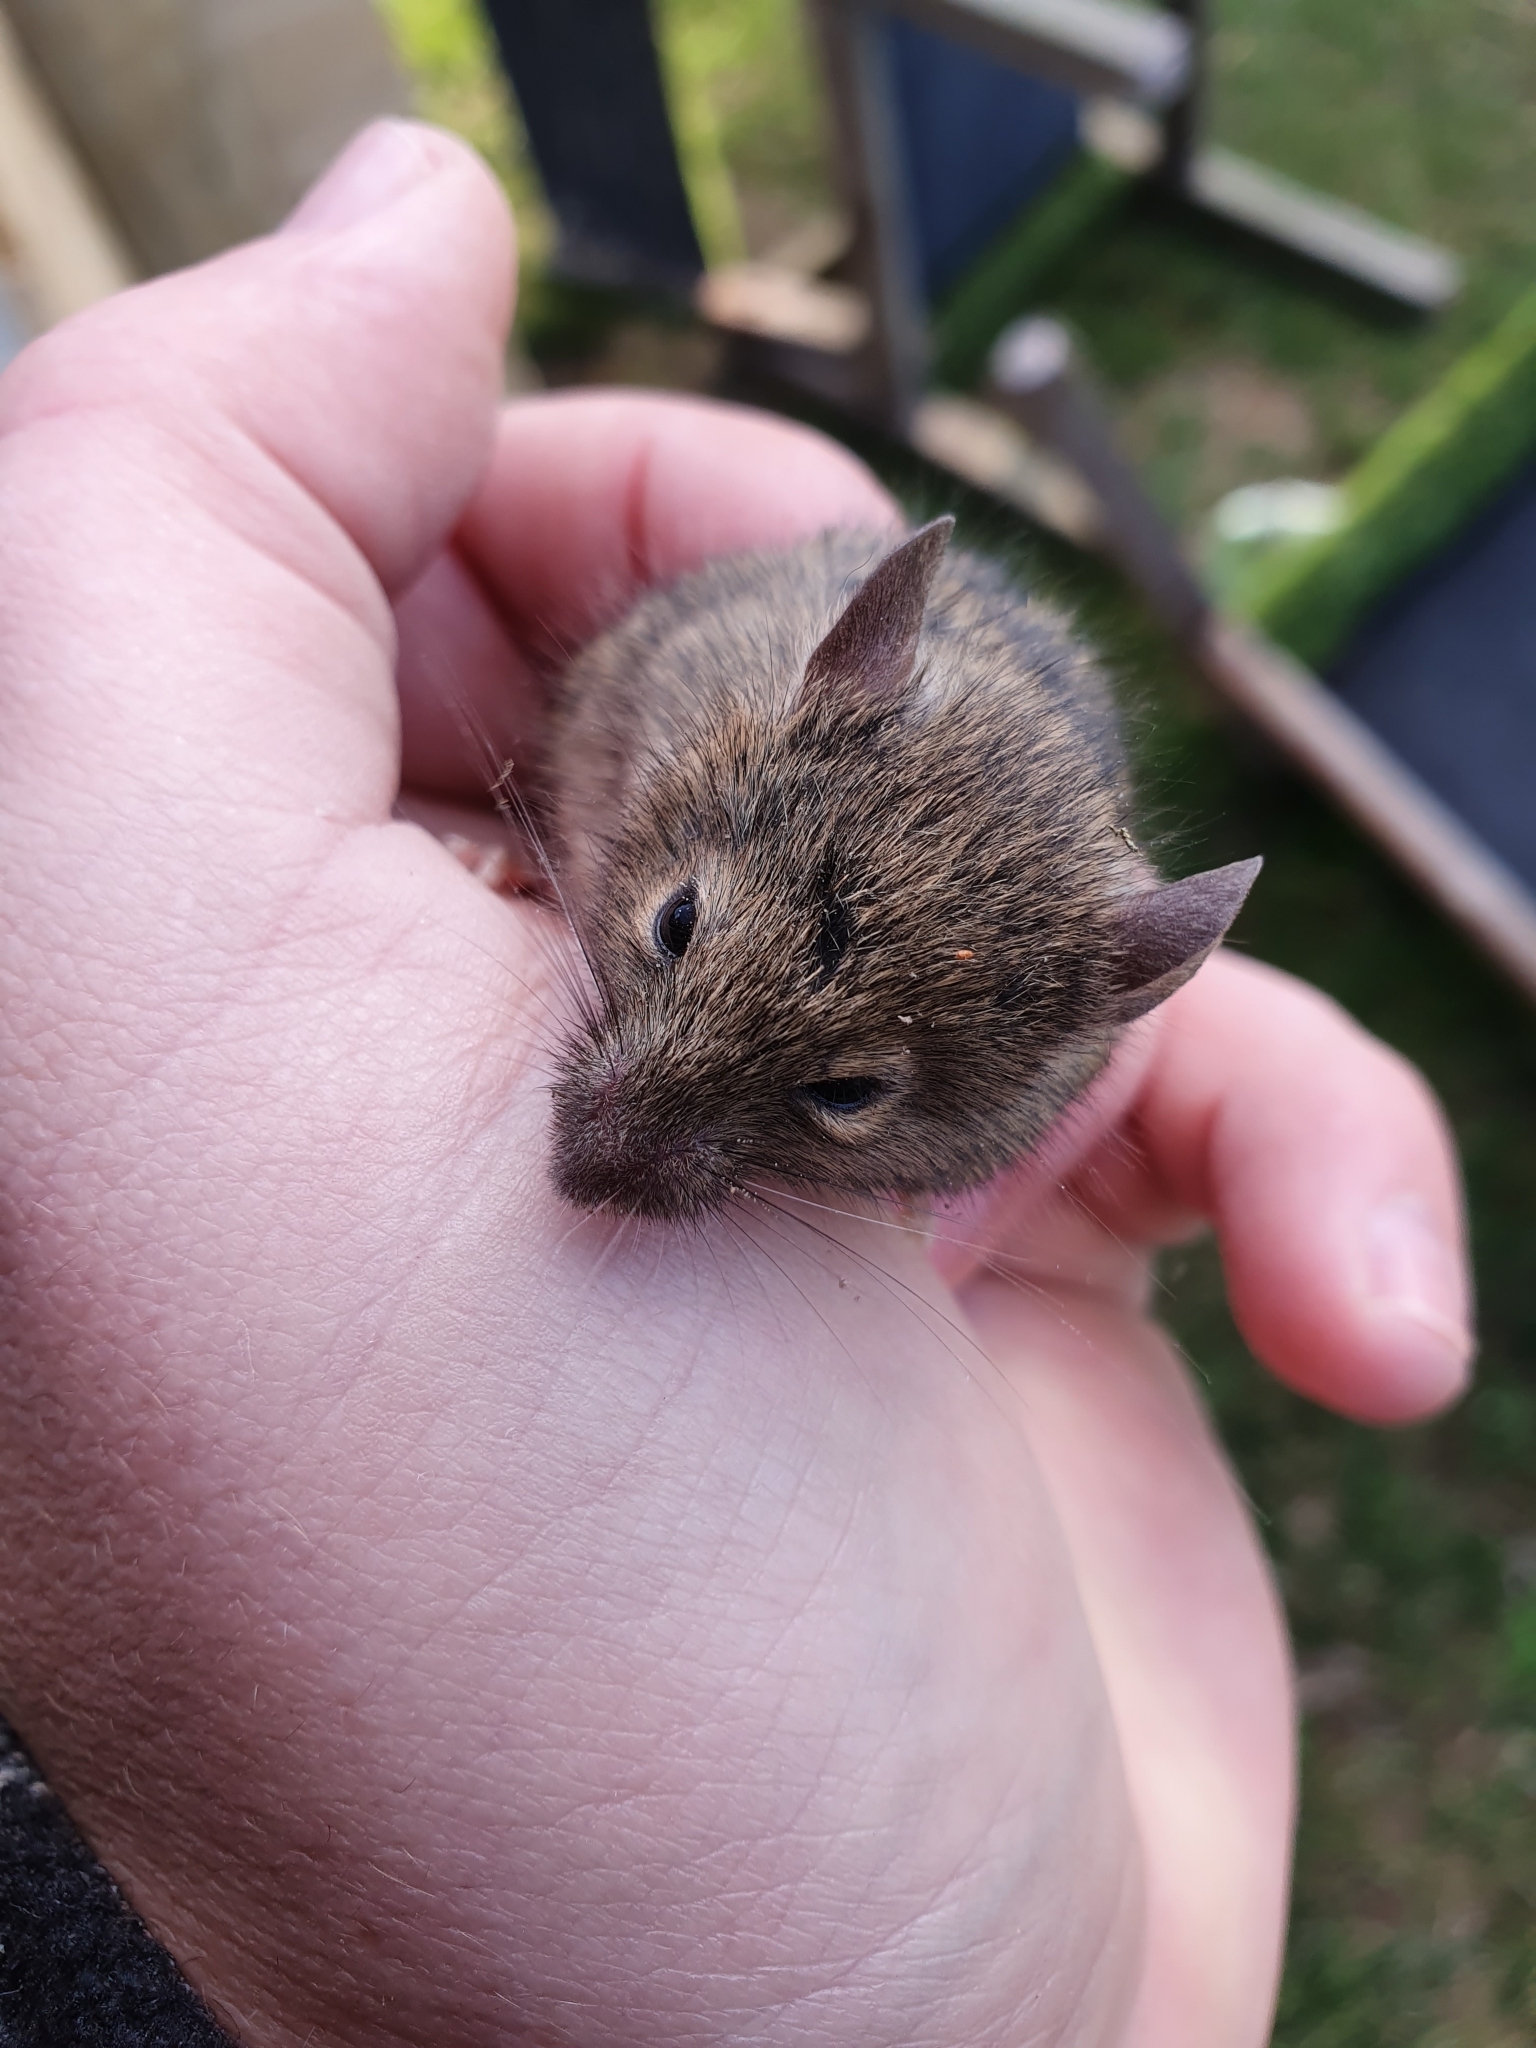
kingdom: Animalia
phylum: Chordata
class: Mammalia
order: Rodentia
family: Muridae
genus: Mus
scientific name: Mus musculus
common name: House mouse
